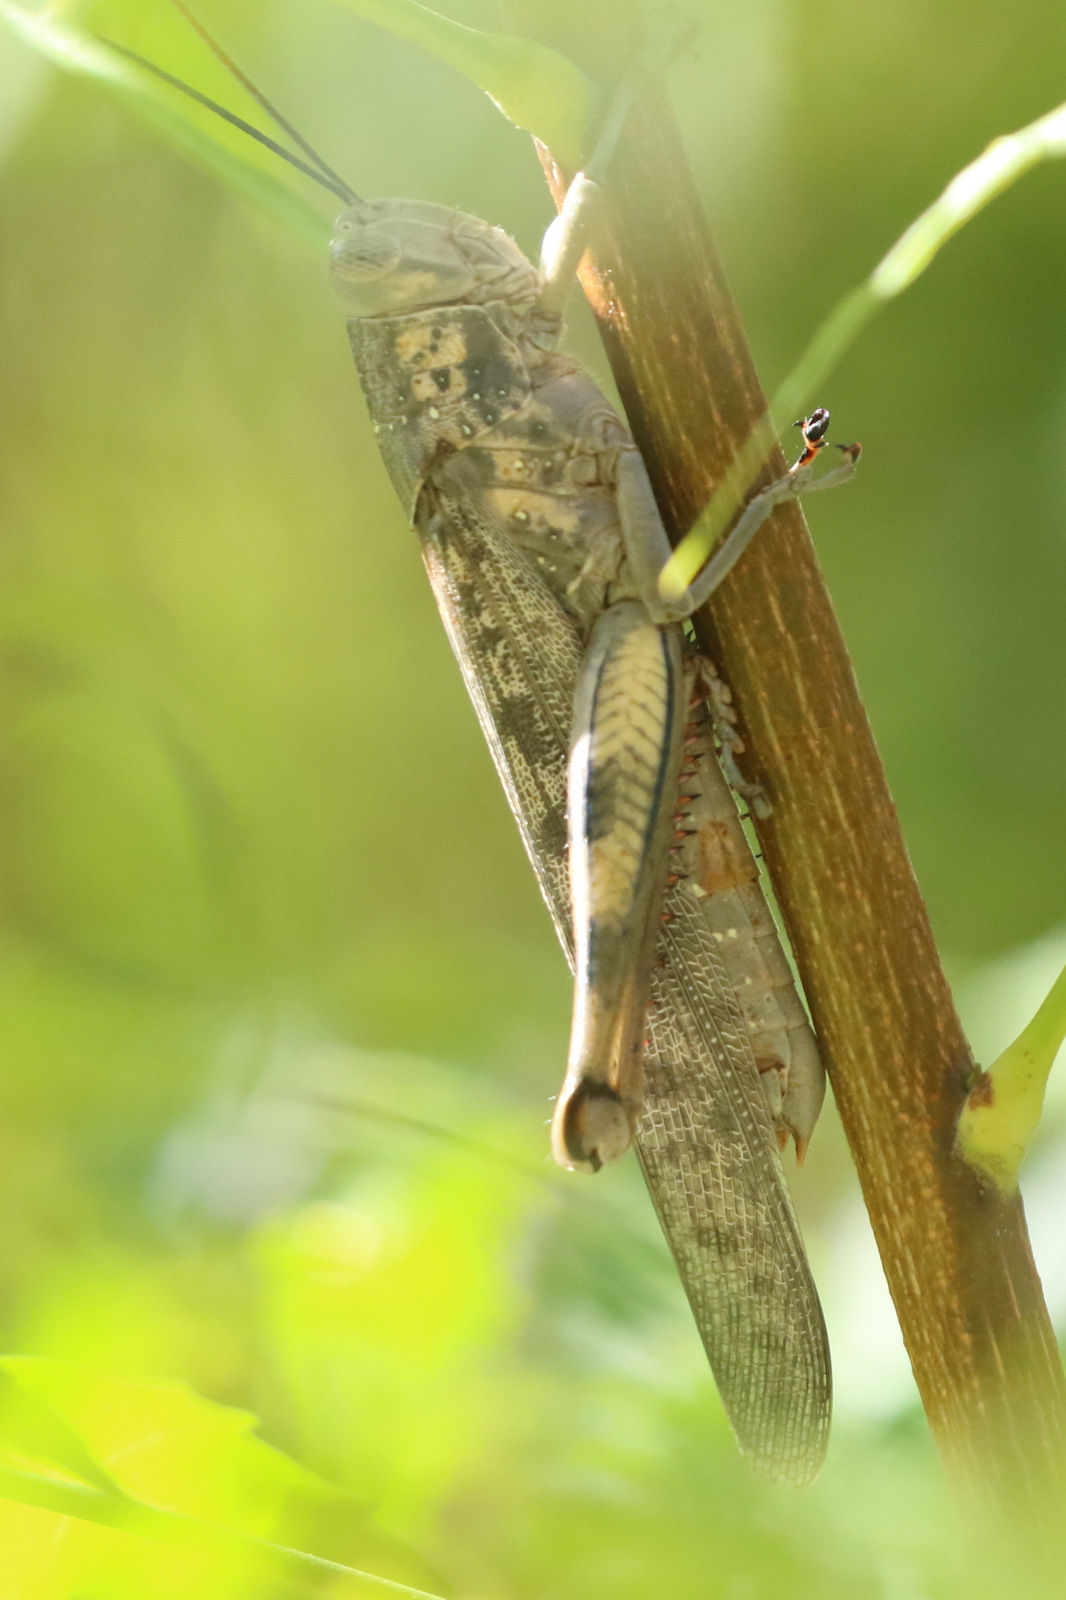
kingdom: Animalia
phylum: Arthropoda
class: Insecta
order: Orthoptera
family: Acrididae
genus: Valanga
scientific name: Valanga irregularis
